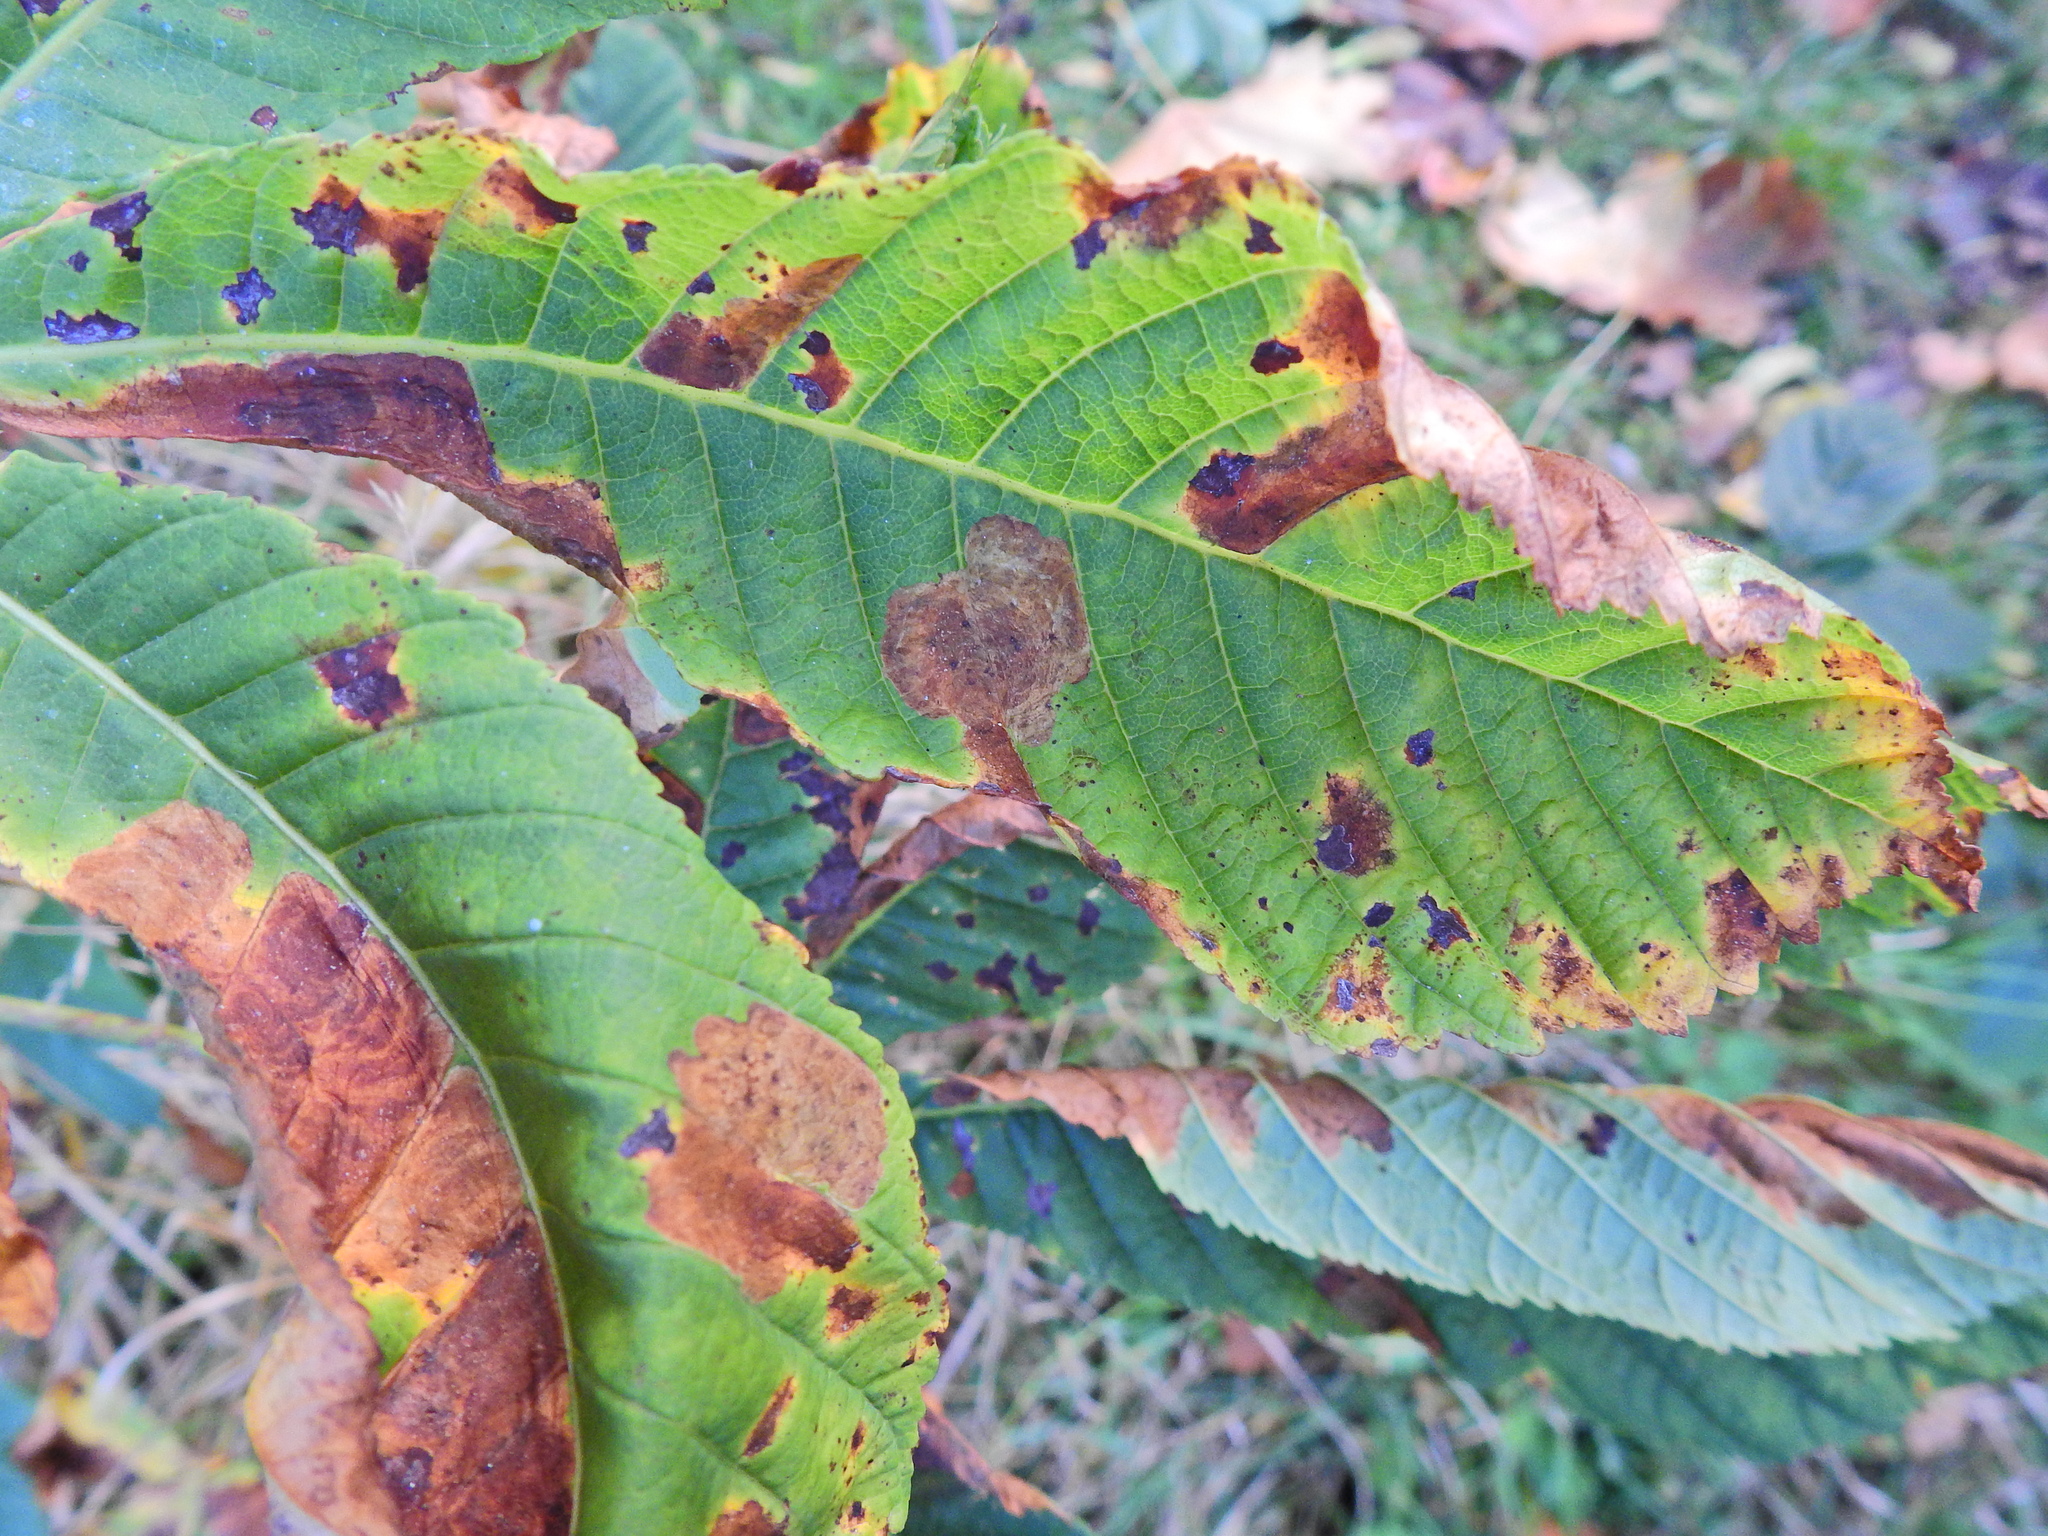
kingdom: Animalia
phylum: Arthropoda
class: Insecta
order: Lepidoptera
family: Gracillariidae
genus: Cameraria
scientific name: Cameraria ohridella
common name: Horse-chestnut leaf-miner
